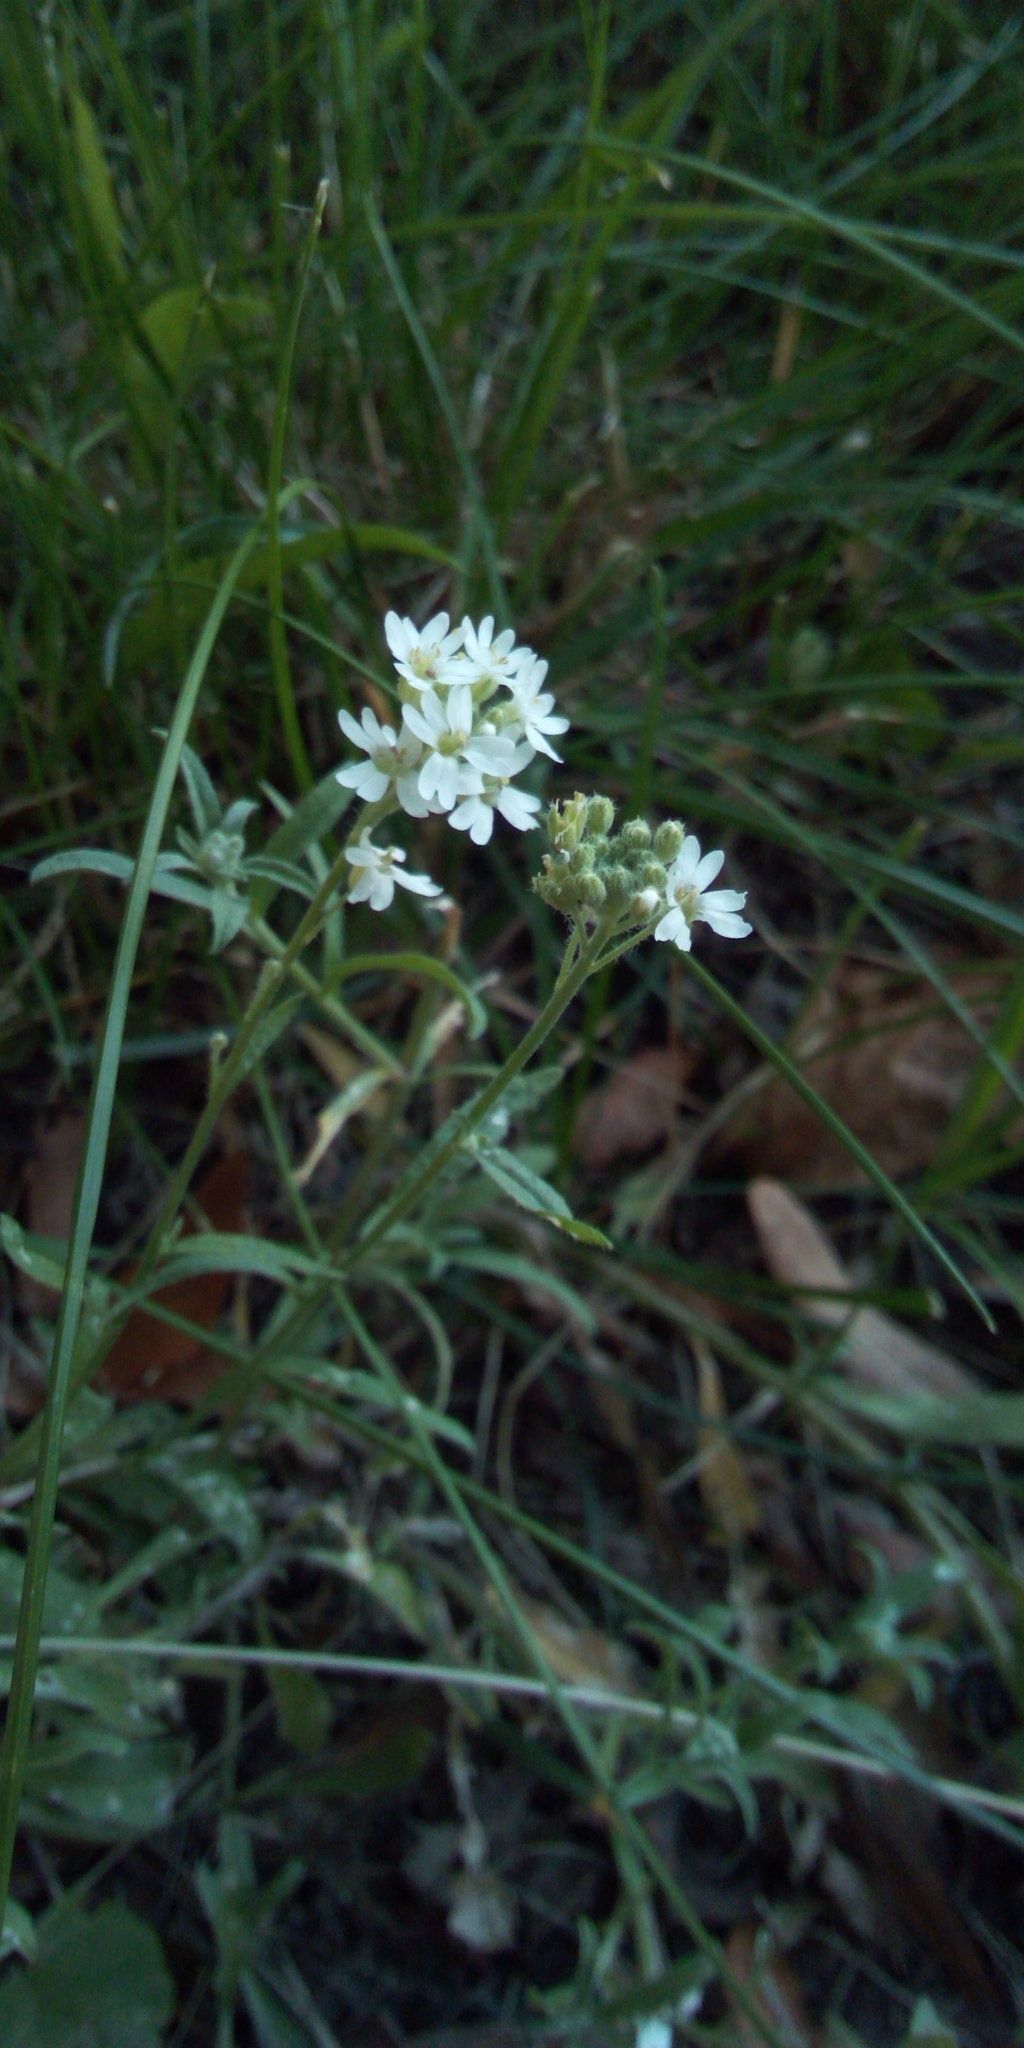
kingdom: Plantae
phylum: Tracheophyta
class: Magnoliopsida
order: Brassicales
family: Brassicaceae
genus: Berteroa
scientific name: Berteroa incana
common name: Hoary alison
